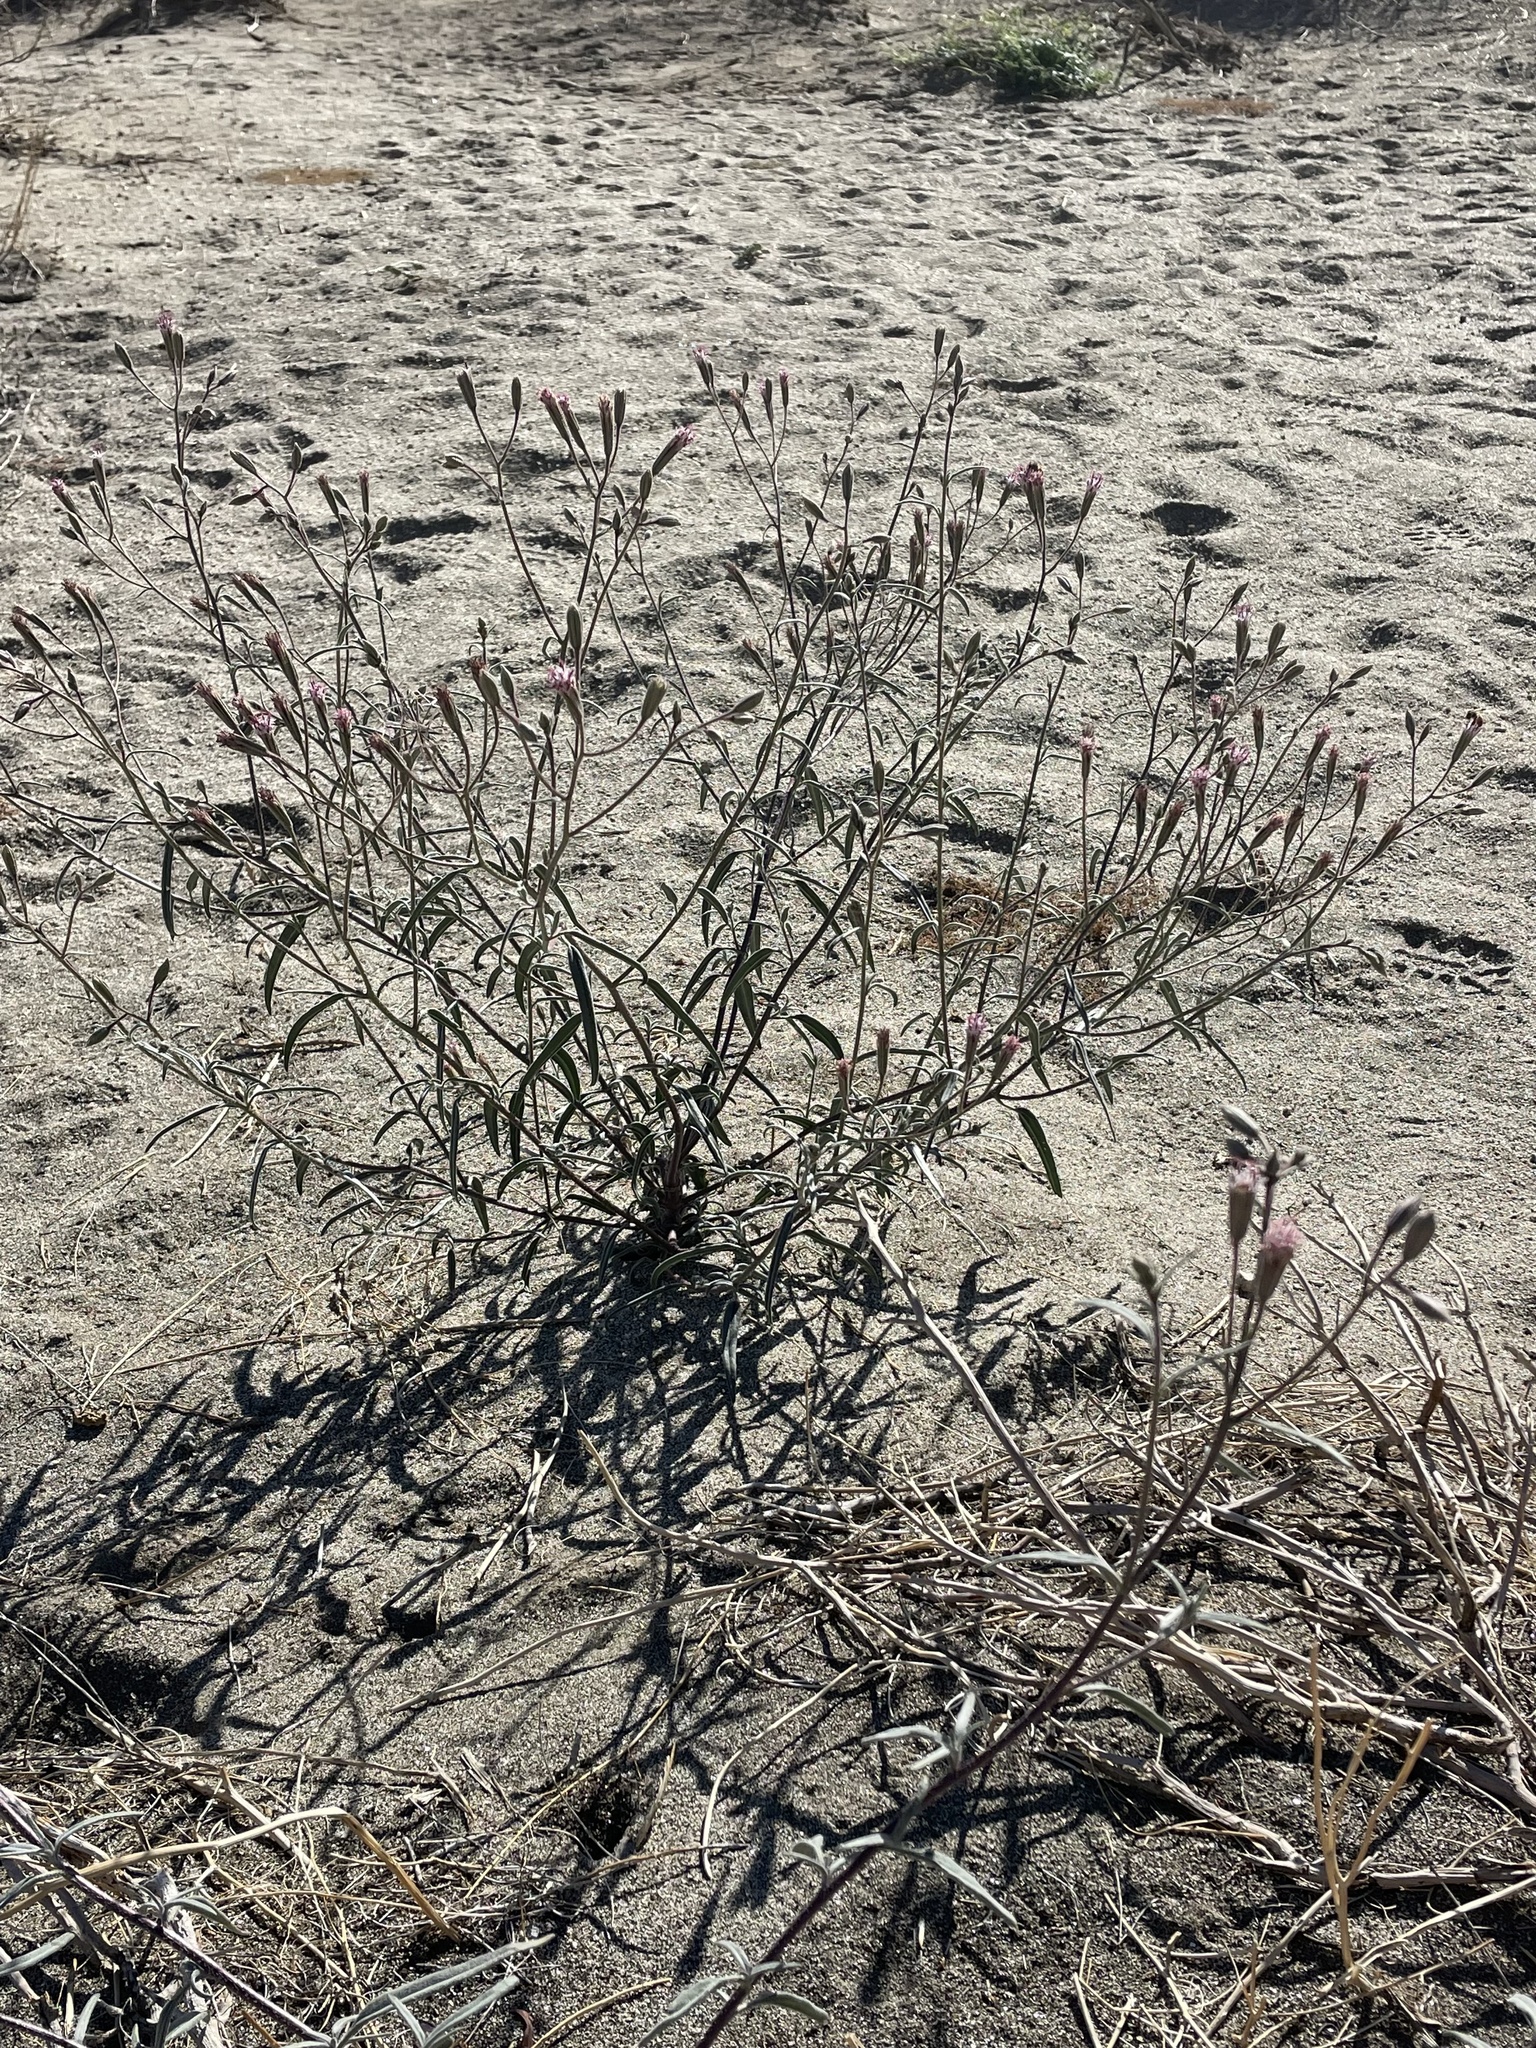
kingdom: Plantae
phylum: Tracheophyta
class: Magnoliopsida
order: Asterales
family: Asteraceae
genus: Palafoxia
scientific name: Palafoxia arida
